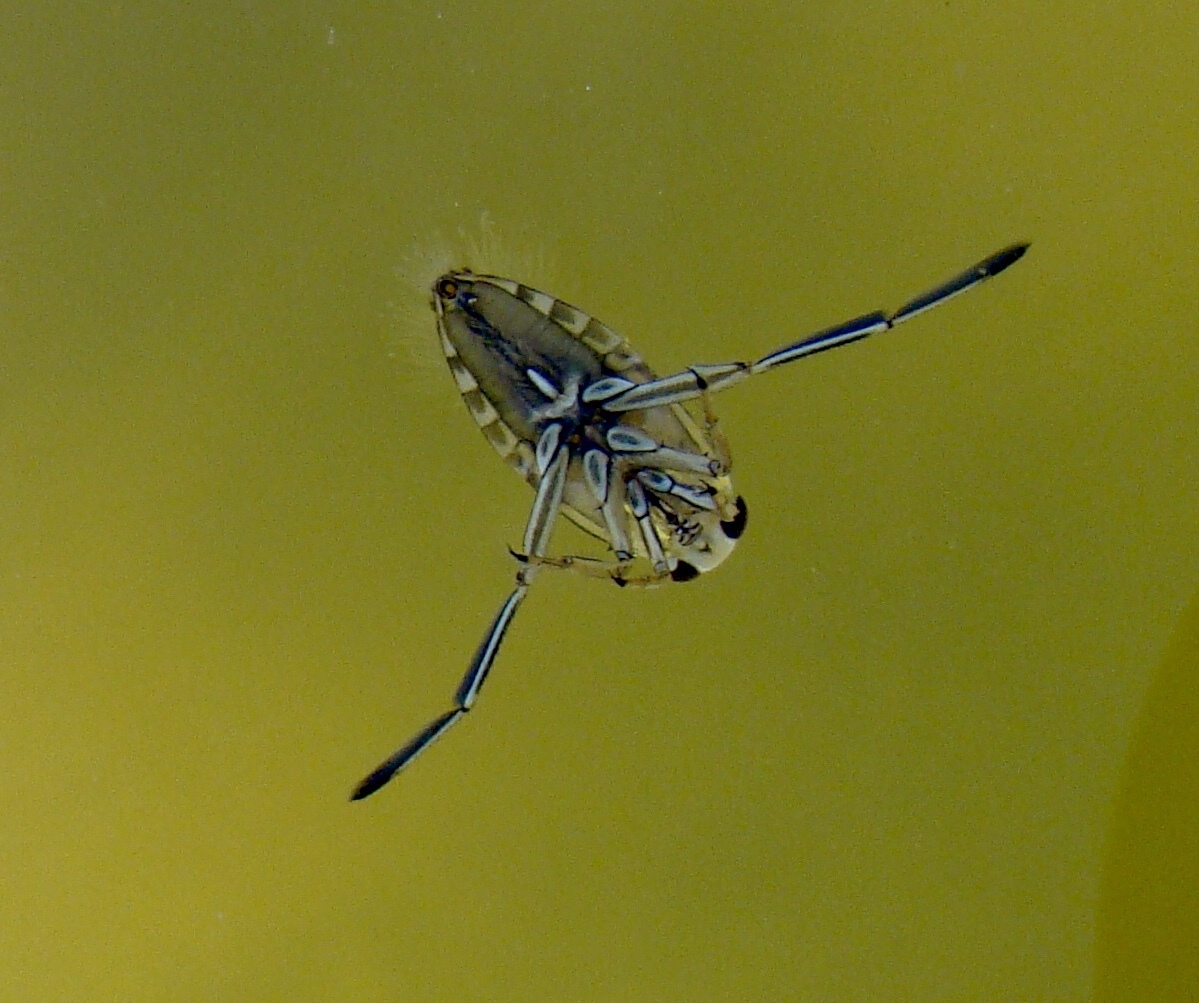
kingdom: Animalia
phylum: Arthropoda
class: Insecta
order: Hemiptera
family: Notonectidae
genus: Notonecta
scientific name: Notonecta
